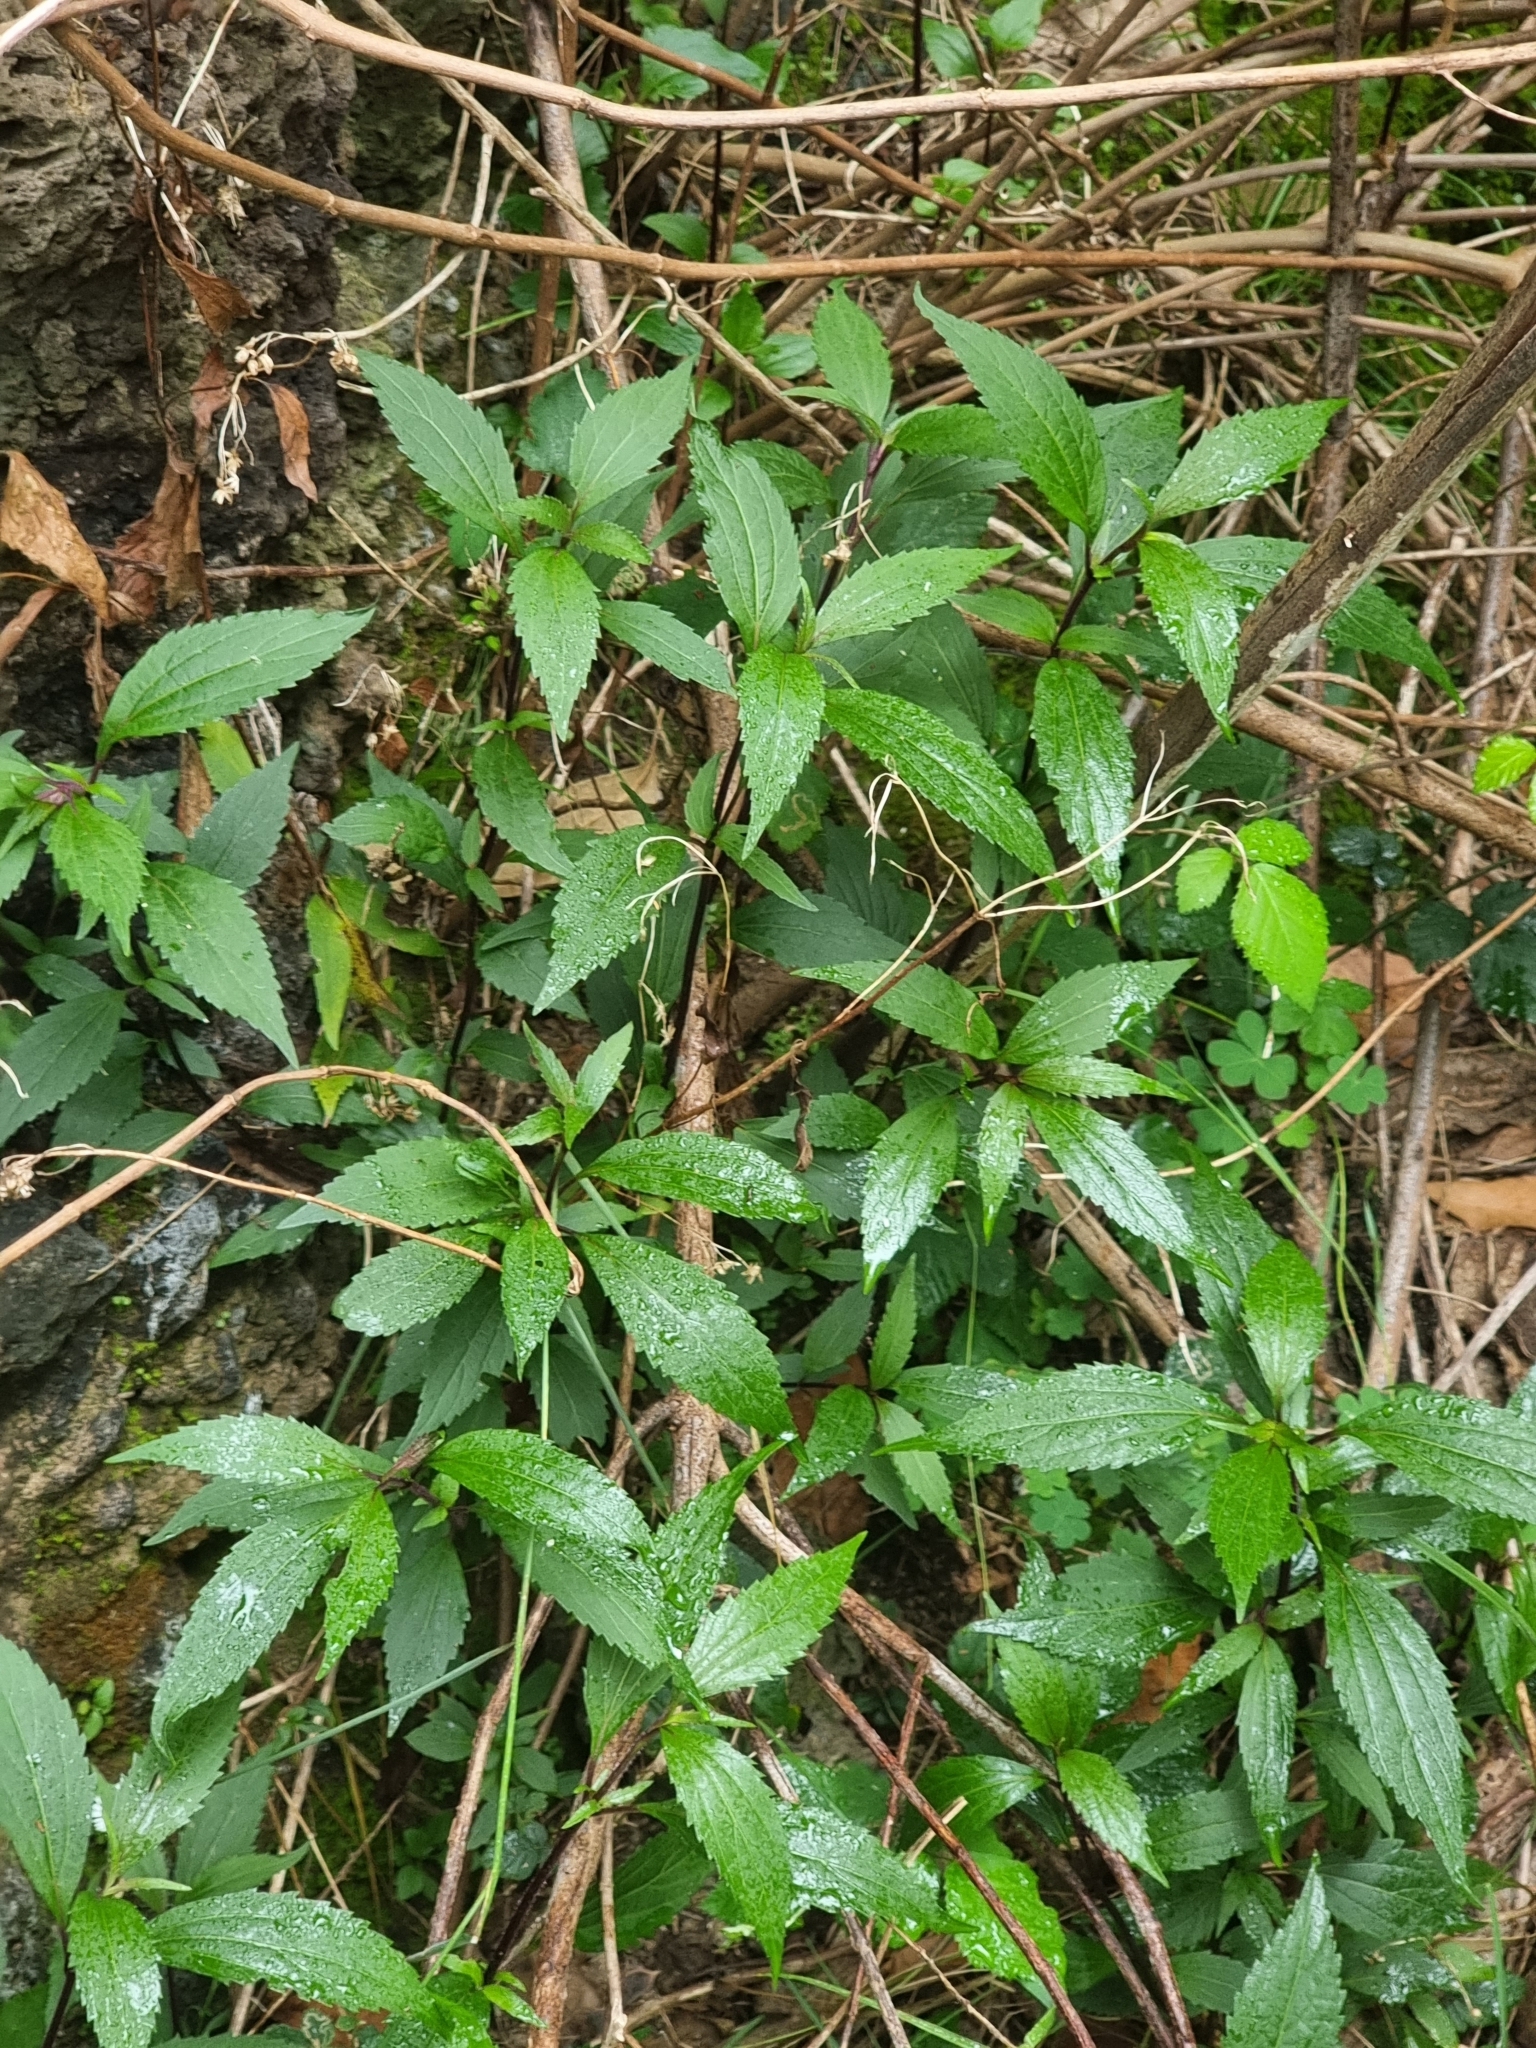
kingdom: Plantae
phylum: Tracheophyta
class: Magnoliopsida
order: Asterales
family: Asteraceae
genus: Ageratina
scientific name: Ageratina riparia
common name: Creeping croftonweed
